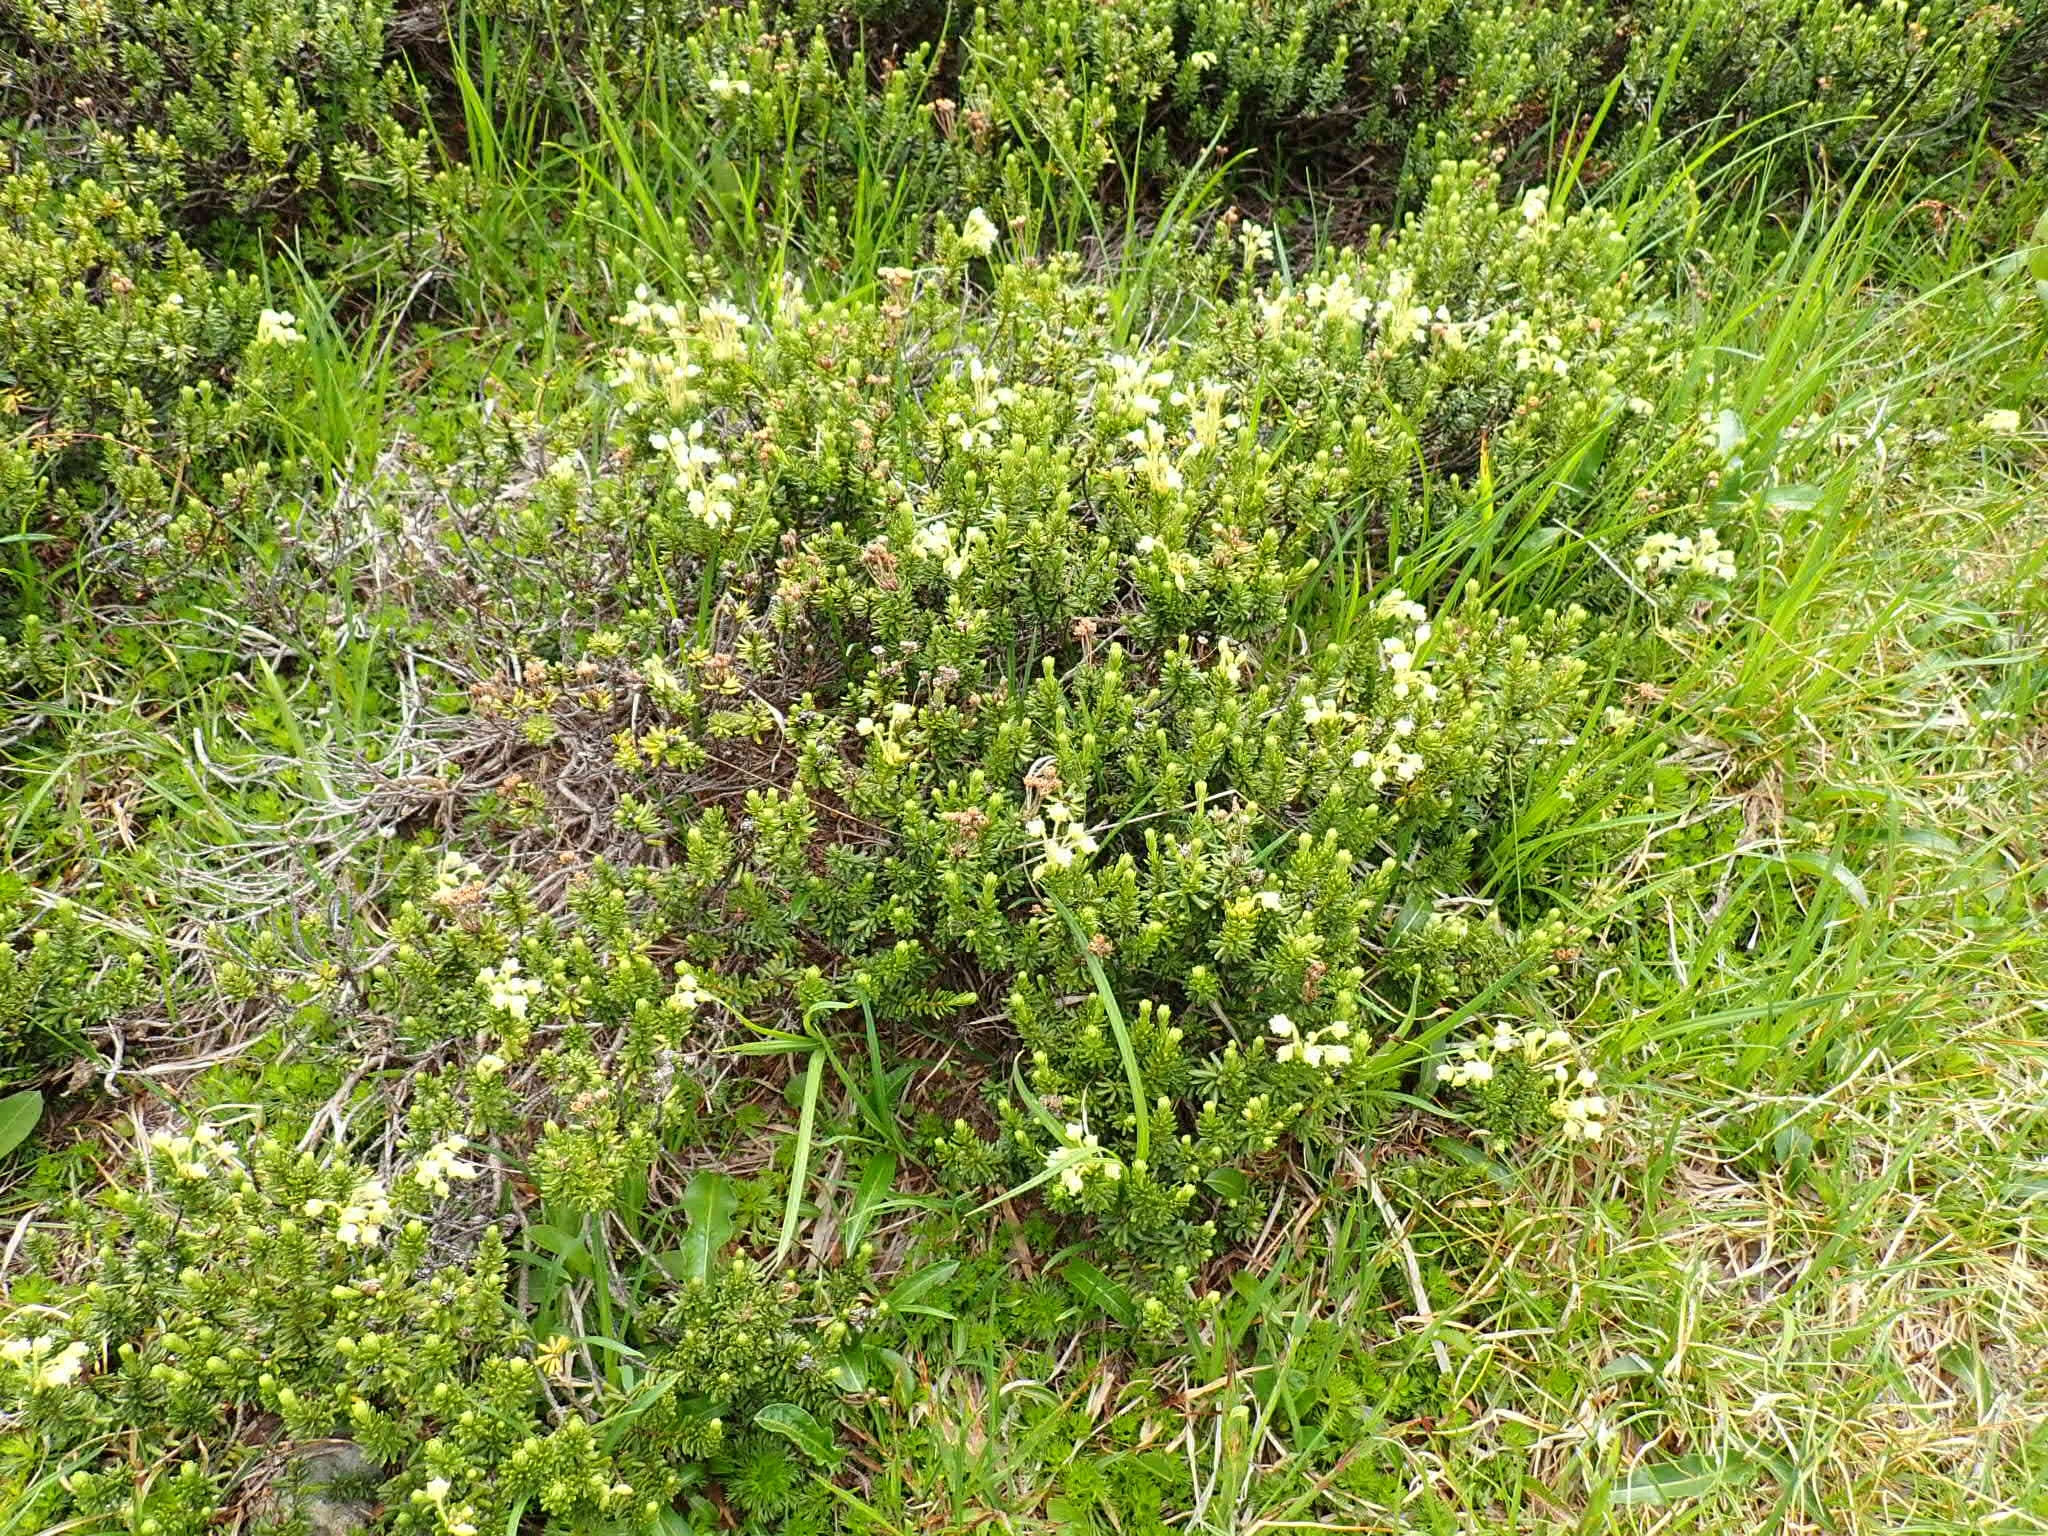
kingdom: Plantae
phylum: Tracheophyta
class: Magnoliopsida
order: Ericales
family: Ericaceae
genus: Phyllodoce
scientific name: Phyllodoce glanduliflora
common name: Cream mountain heather
